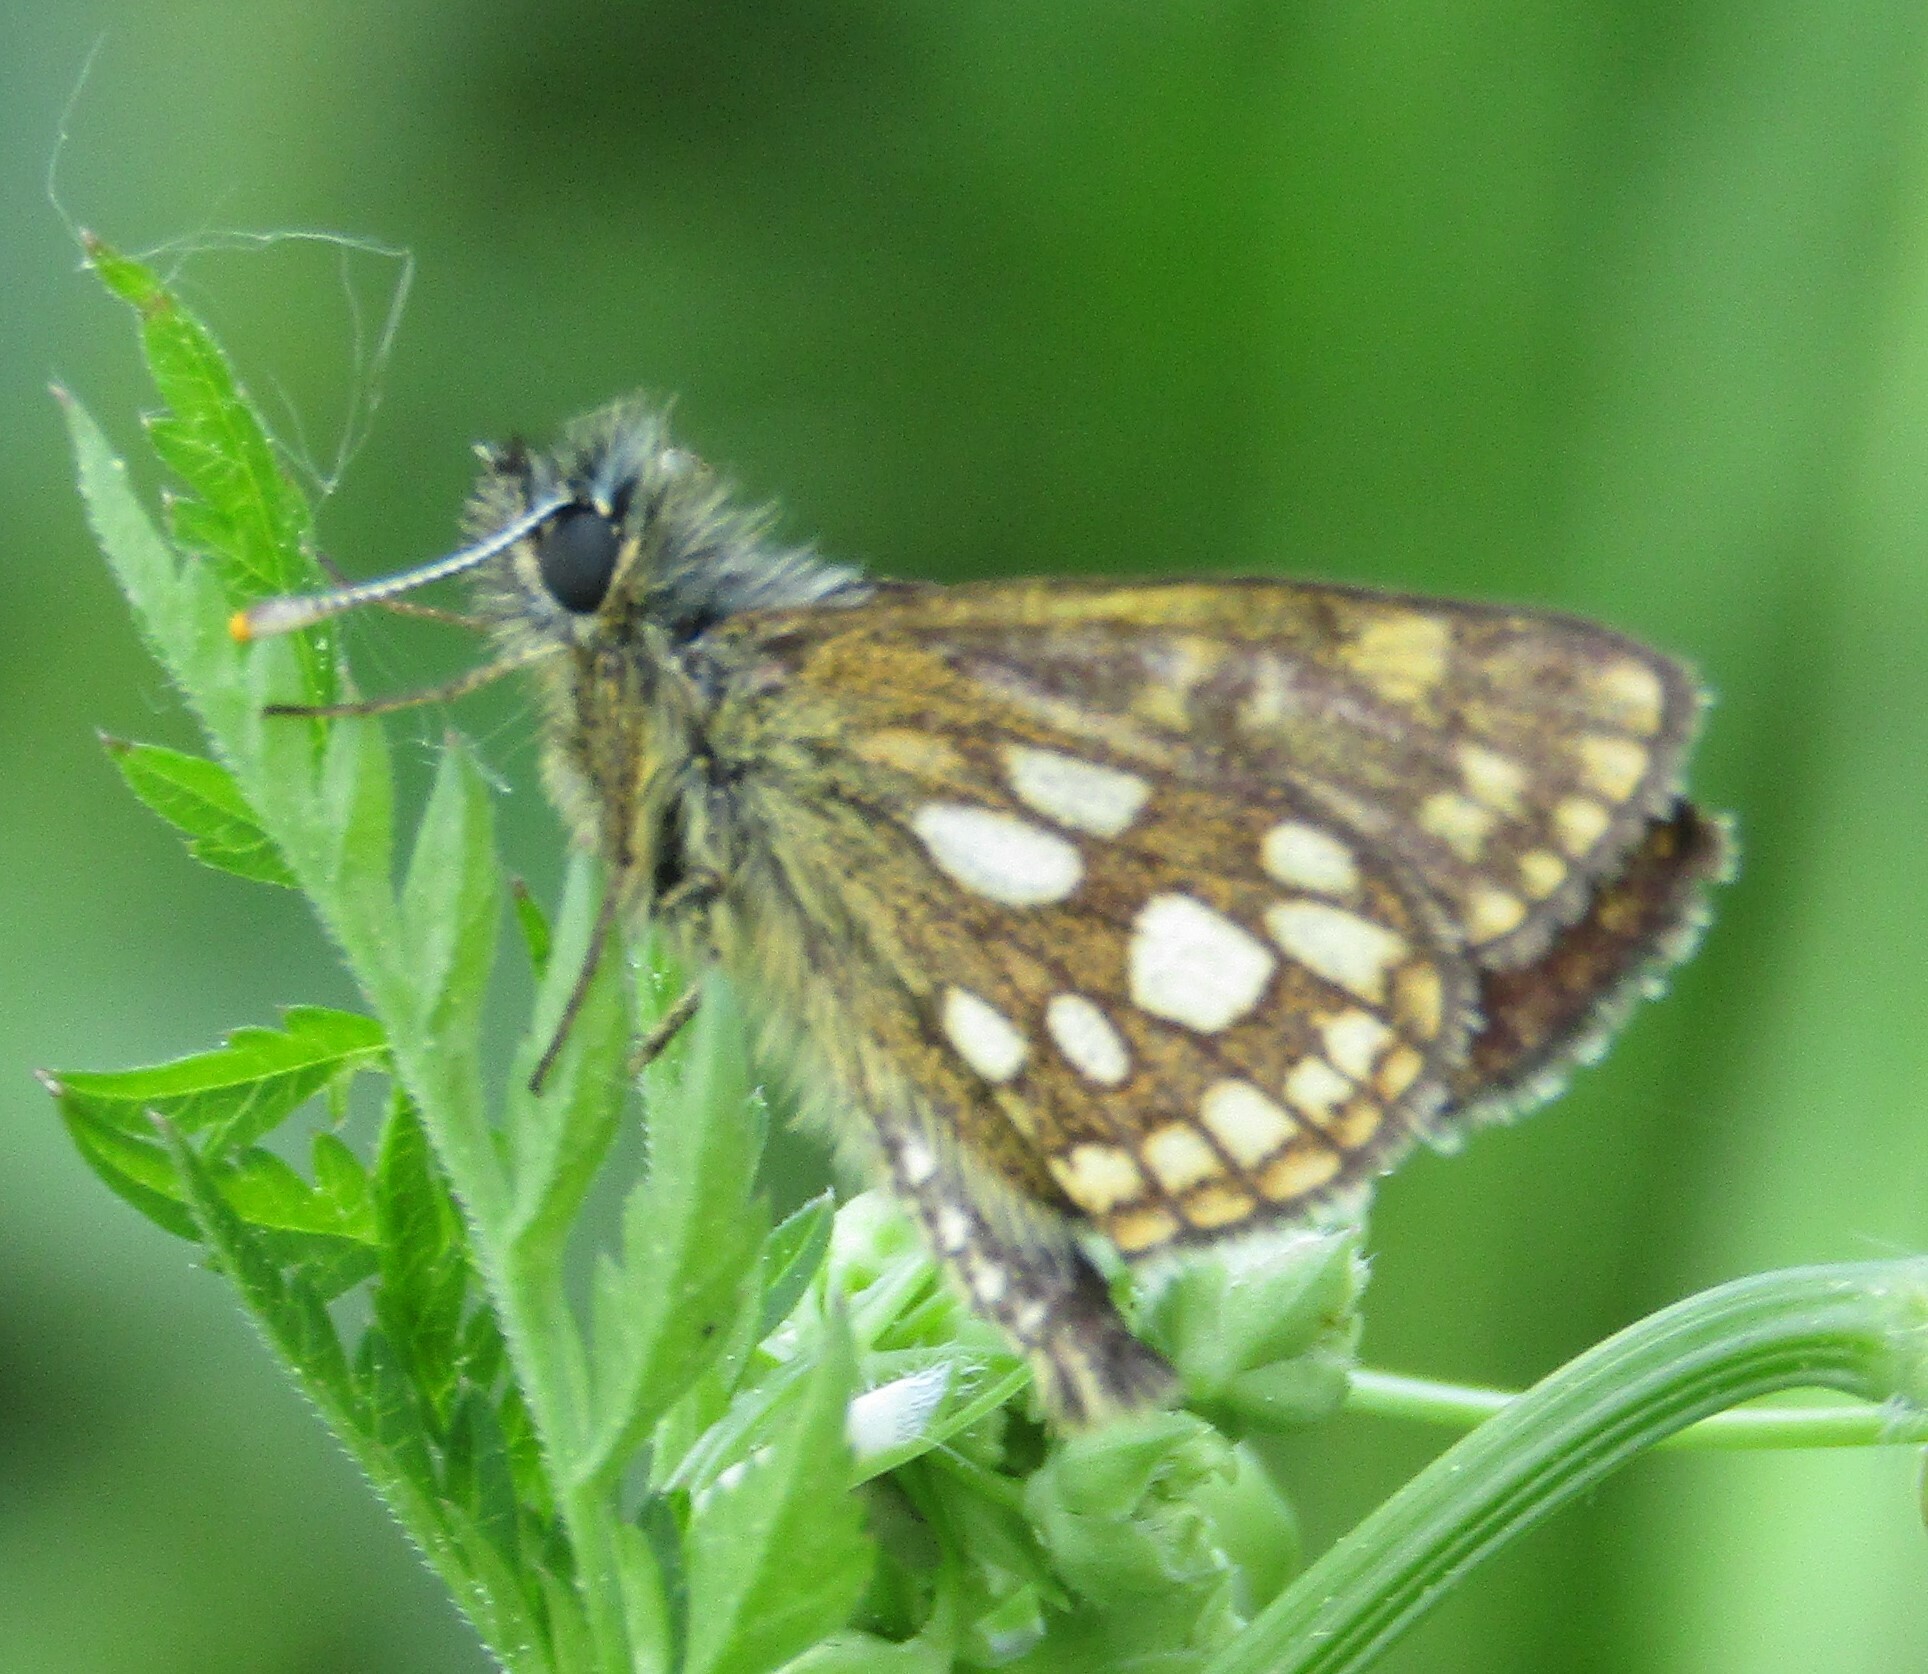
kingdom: Animalia
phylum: Arthropoda
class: Insecta
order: Lepidoptera
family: Hesperiidae
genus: Carterocephalus
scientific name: Carterocephalus palaemon
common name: Chequered skipper
